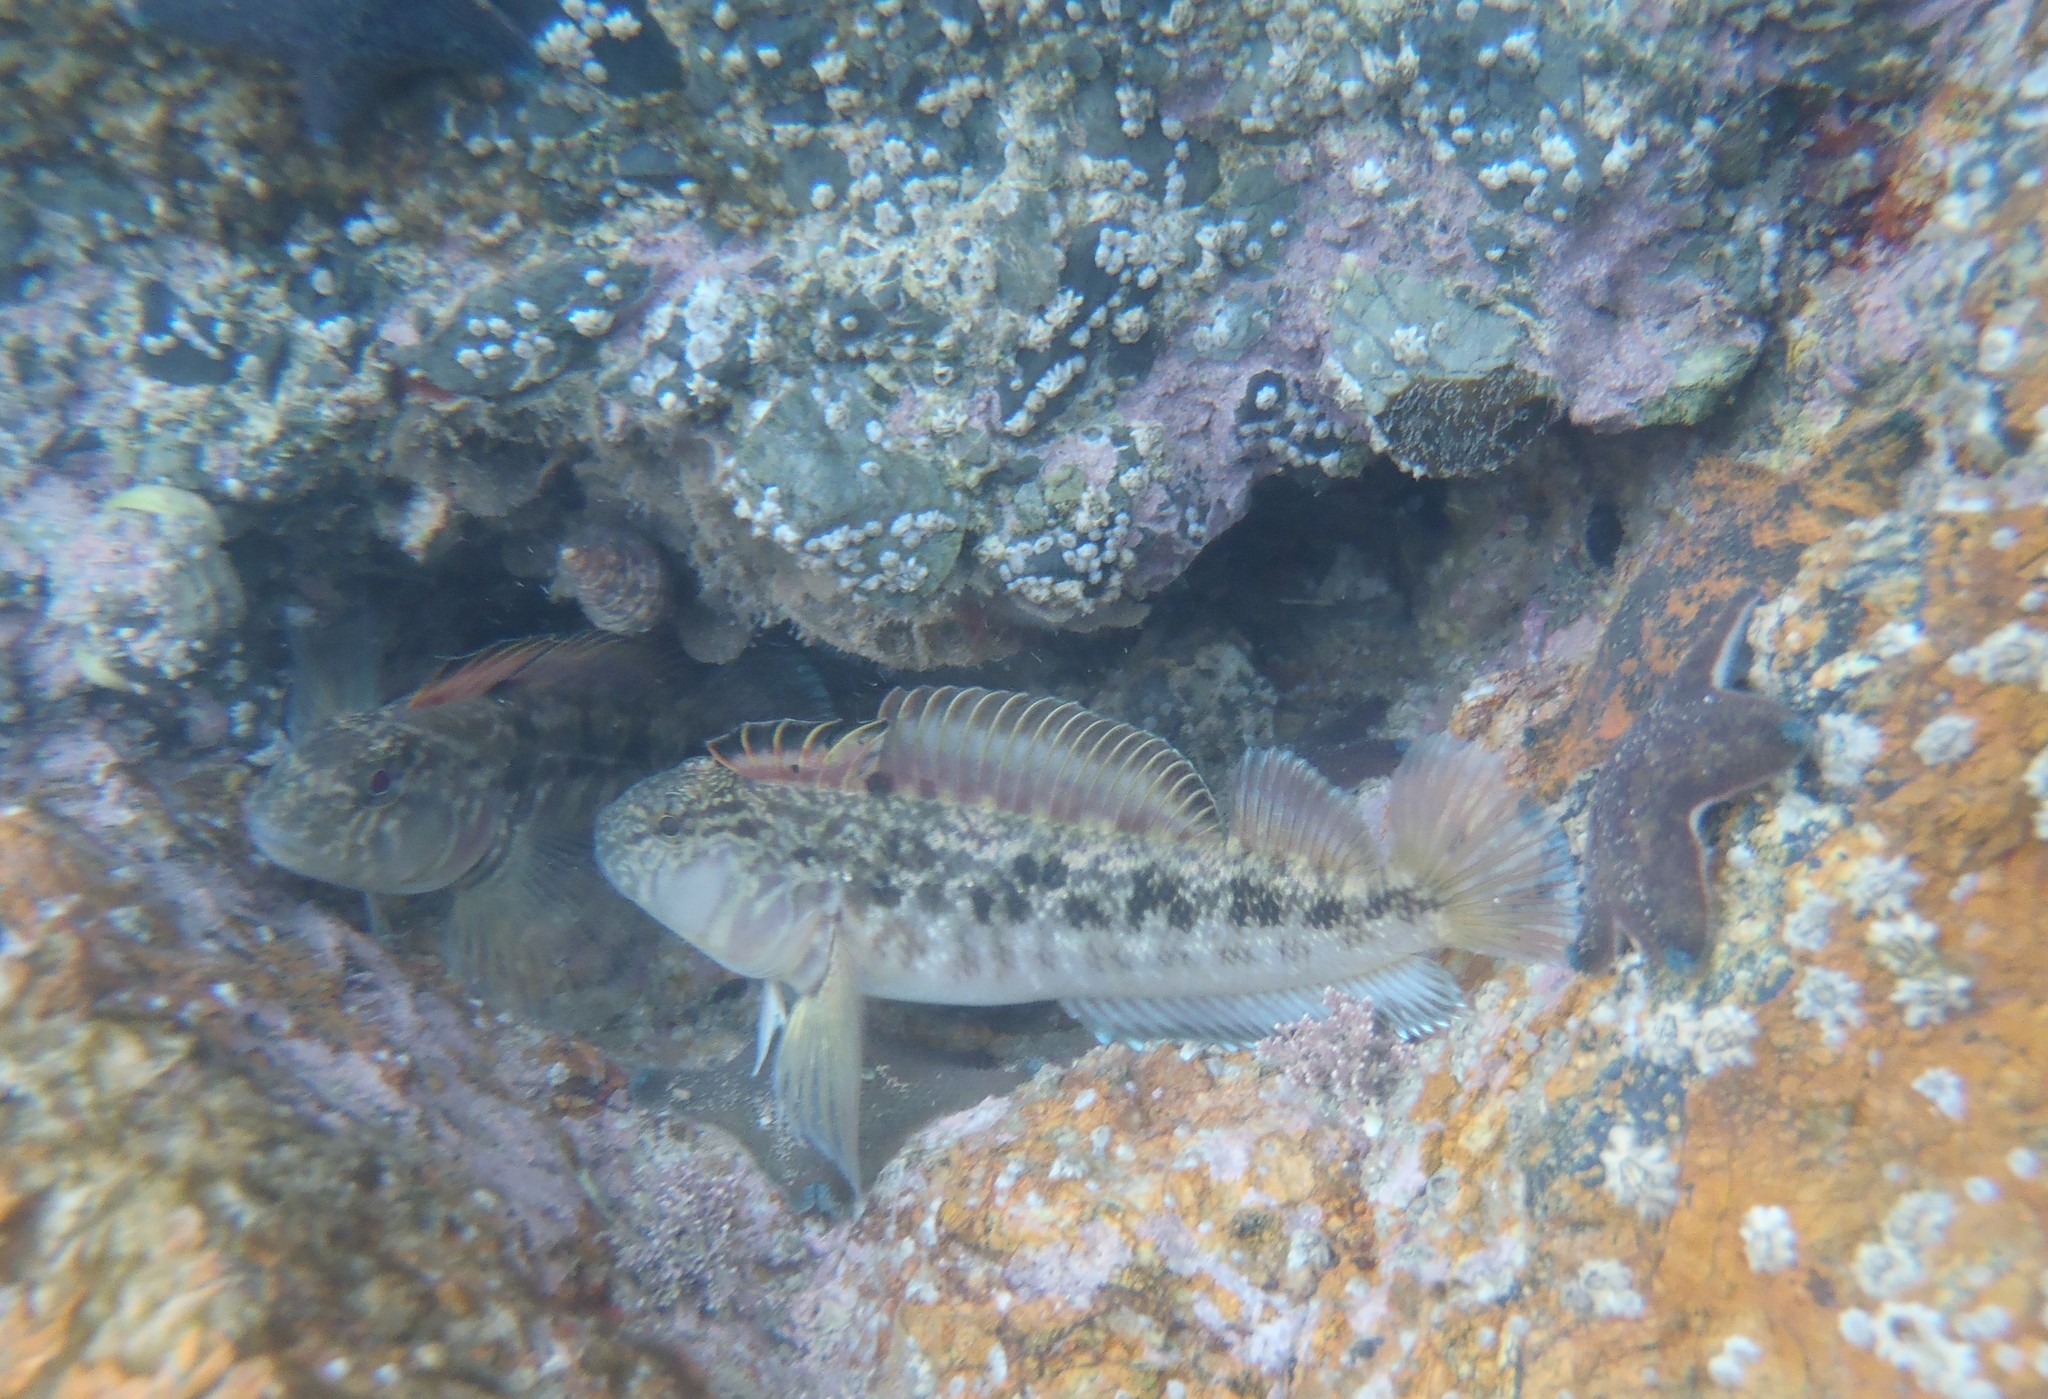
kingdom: Animalia
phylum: Chordata
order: Perciformes
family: Tripterygiidae
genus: Forsterygion
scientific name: Forsterygion nigripenne
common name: Cockabully
